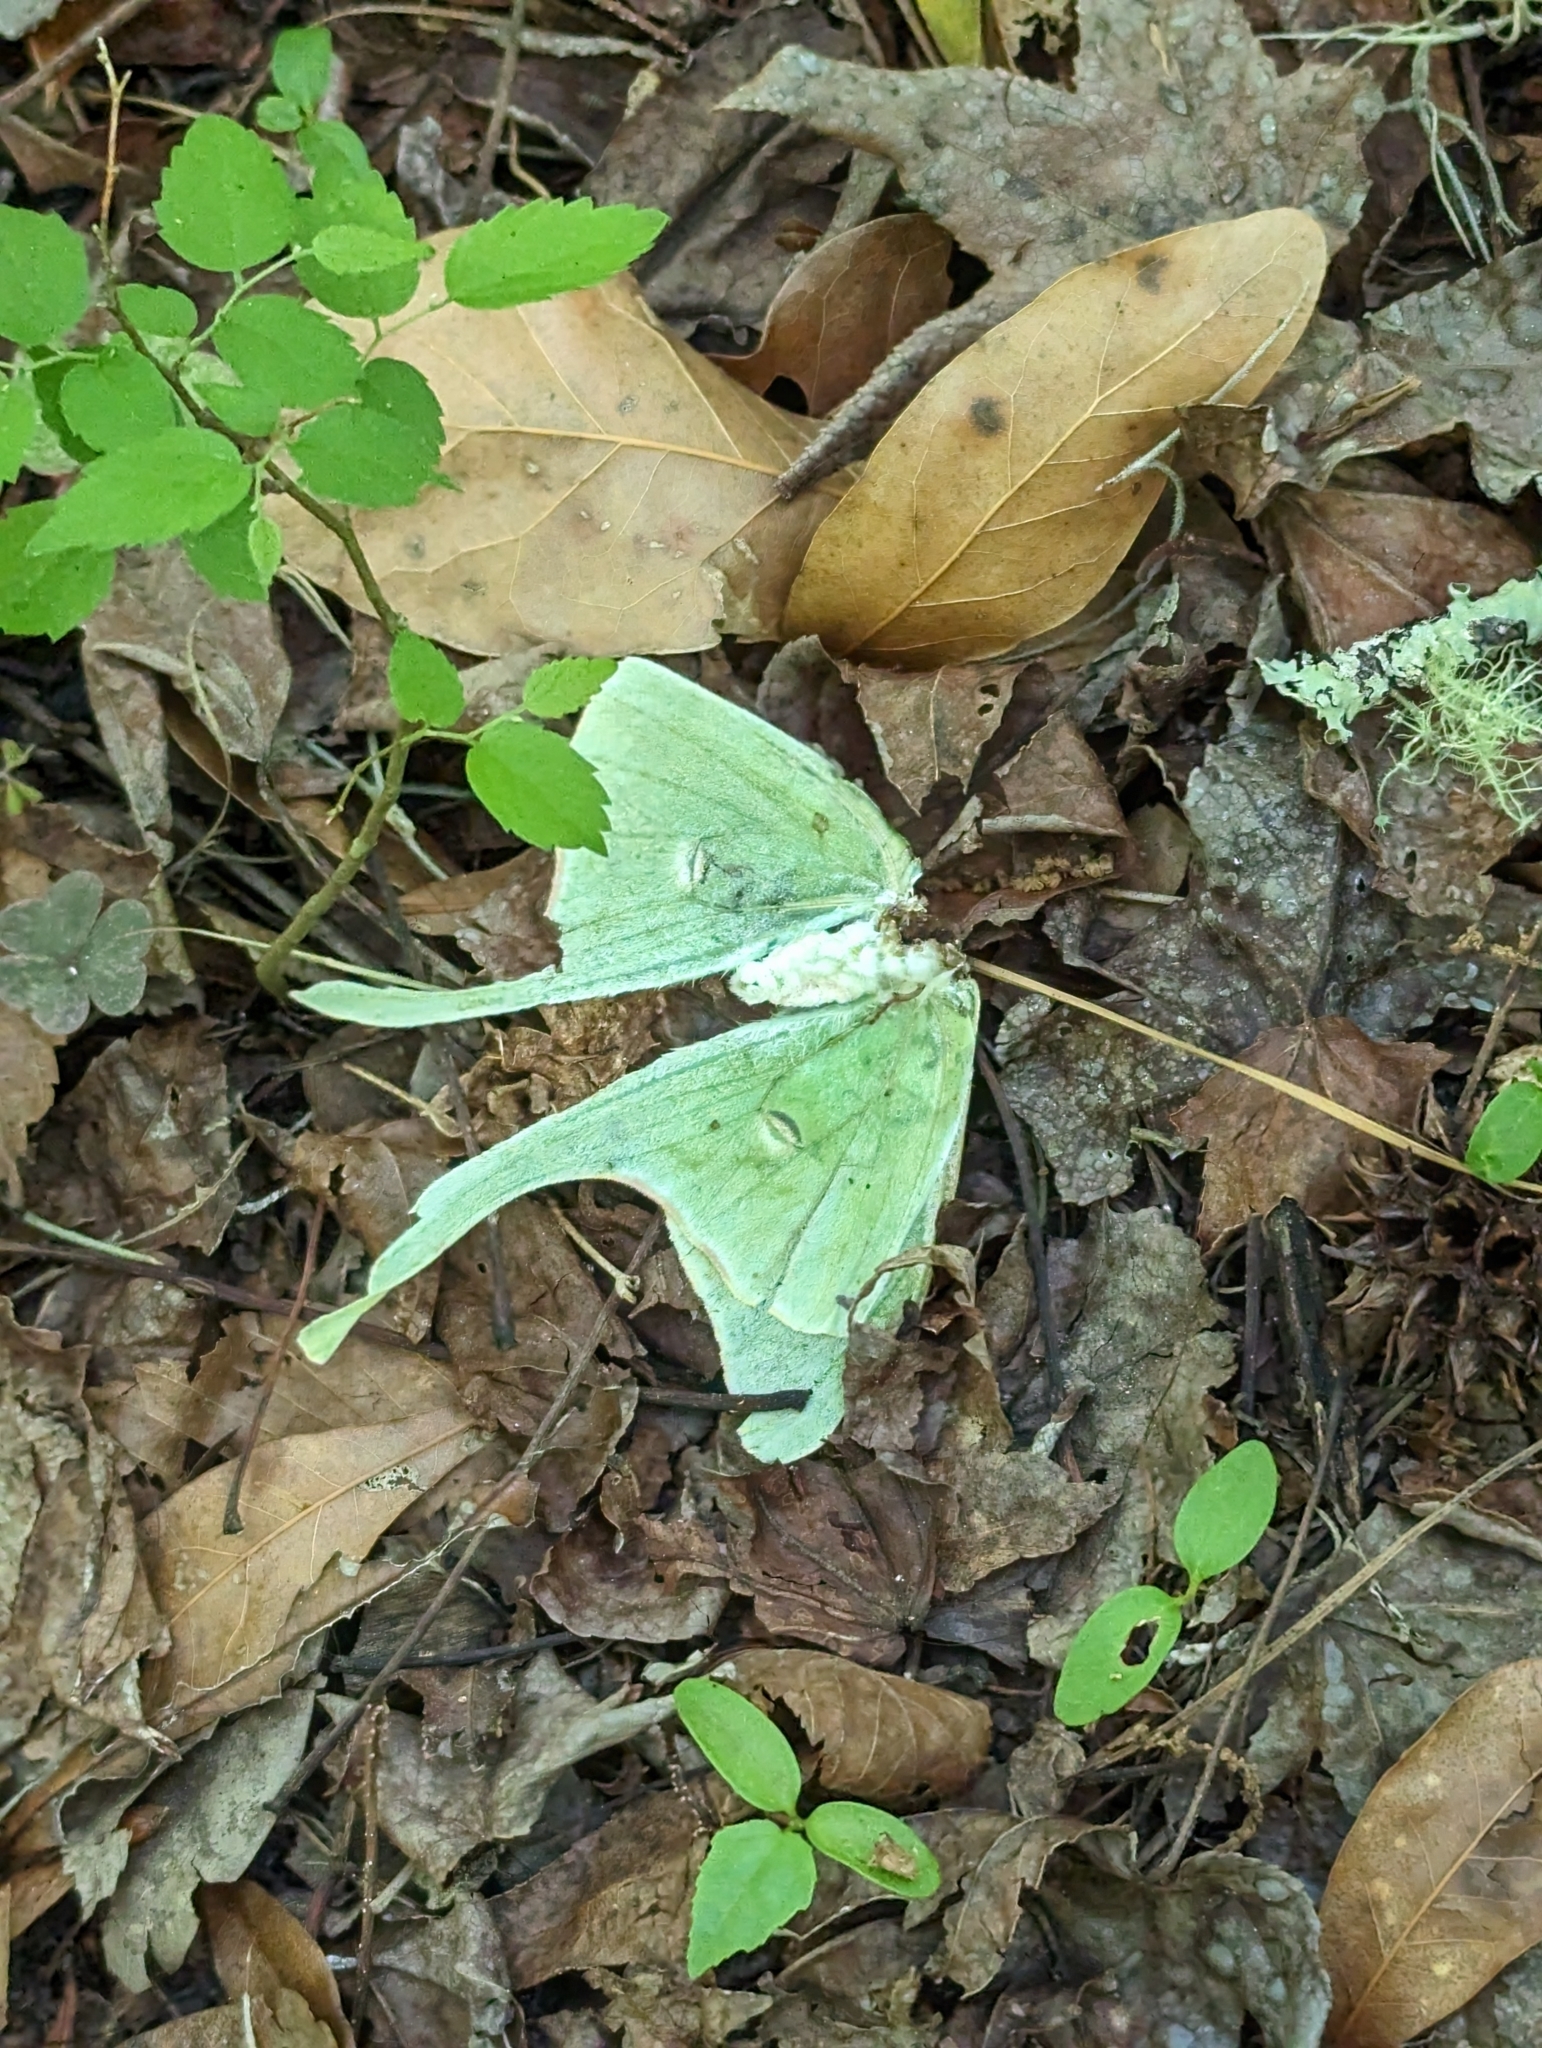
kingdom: Animalia
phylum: Arthropoda
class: Insecta
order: Lepidoptera
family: Saturniidae
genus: Actias
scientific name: Actias luna
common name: Luna moth
